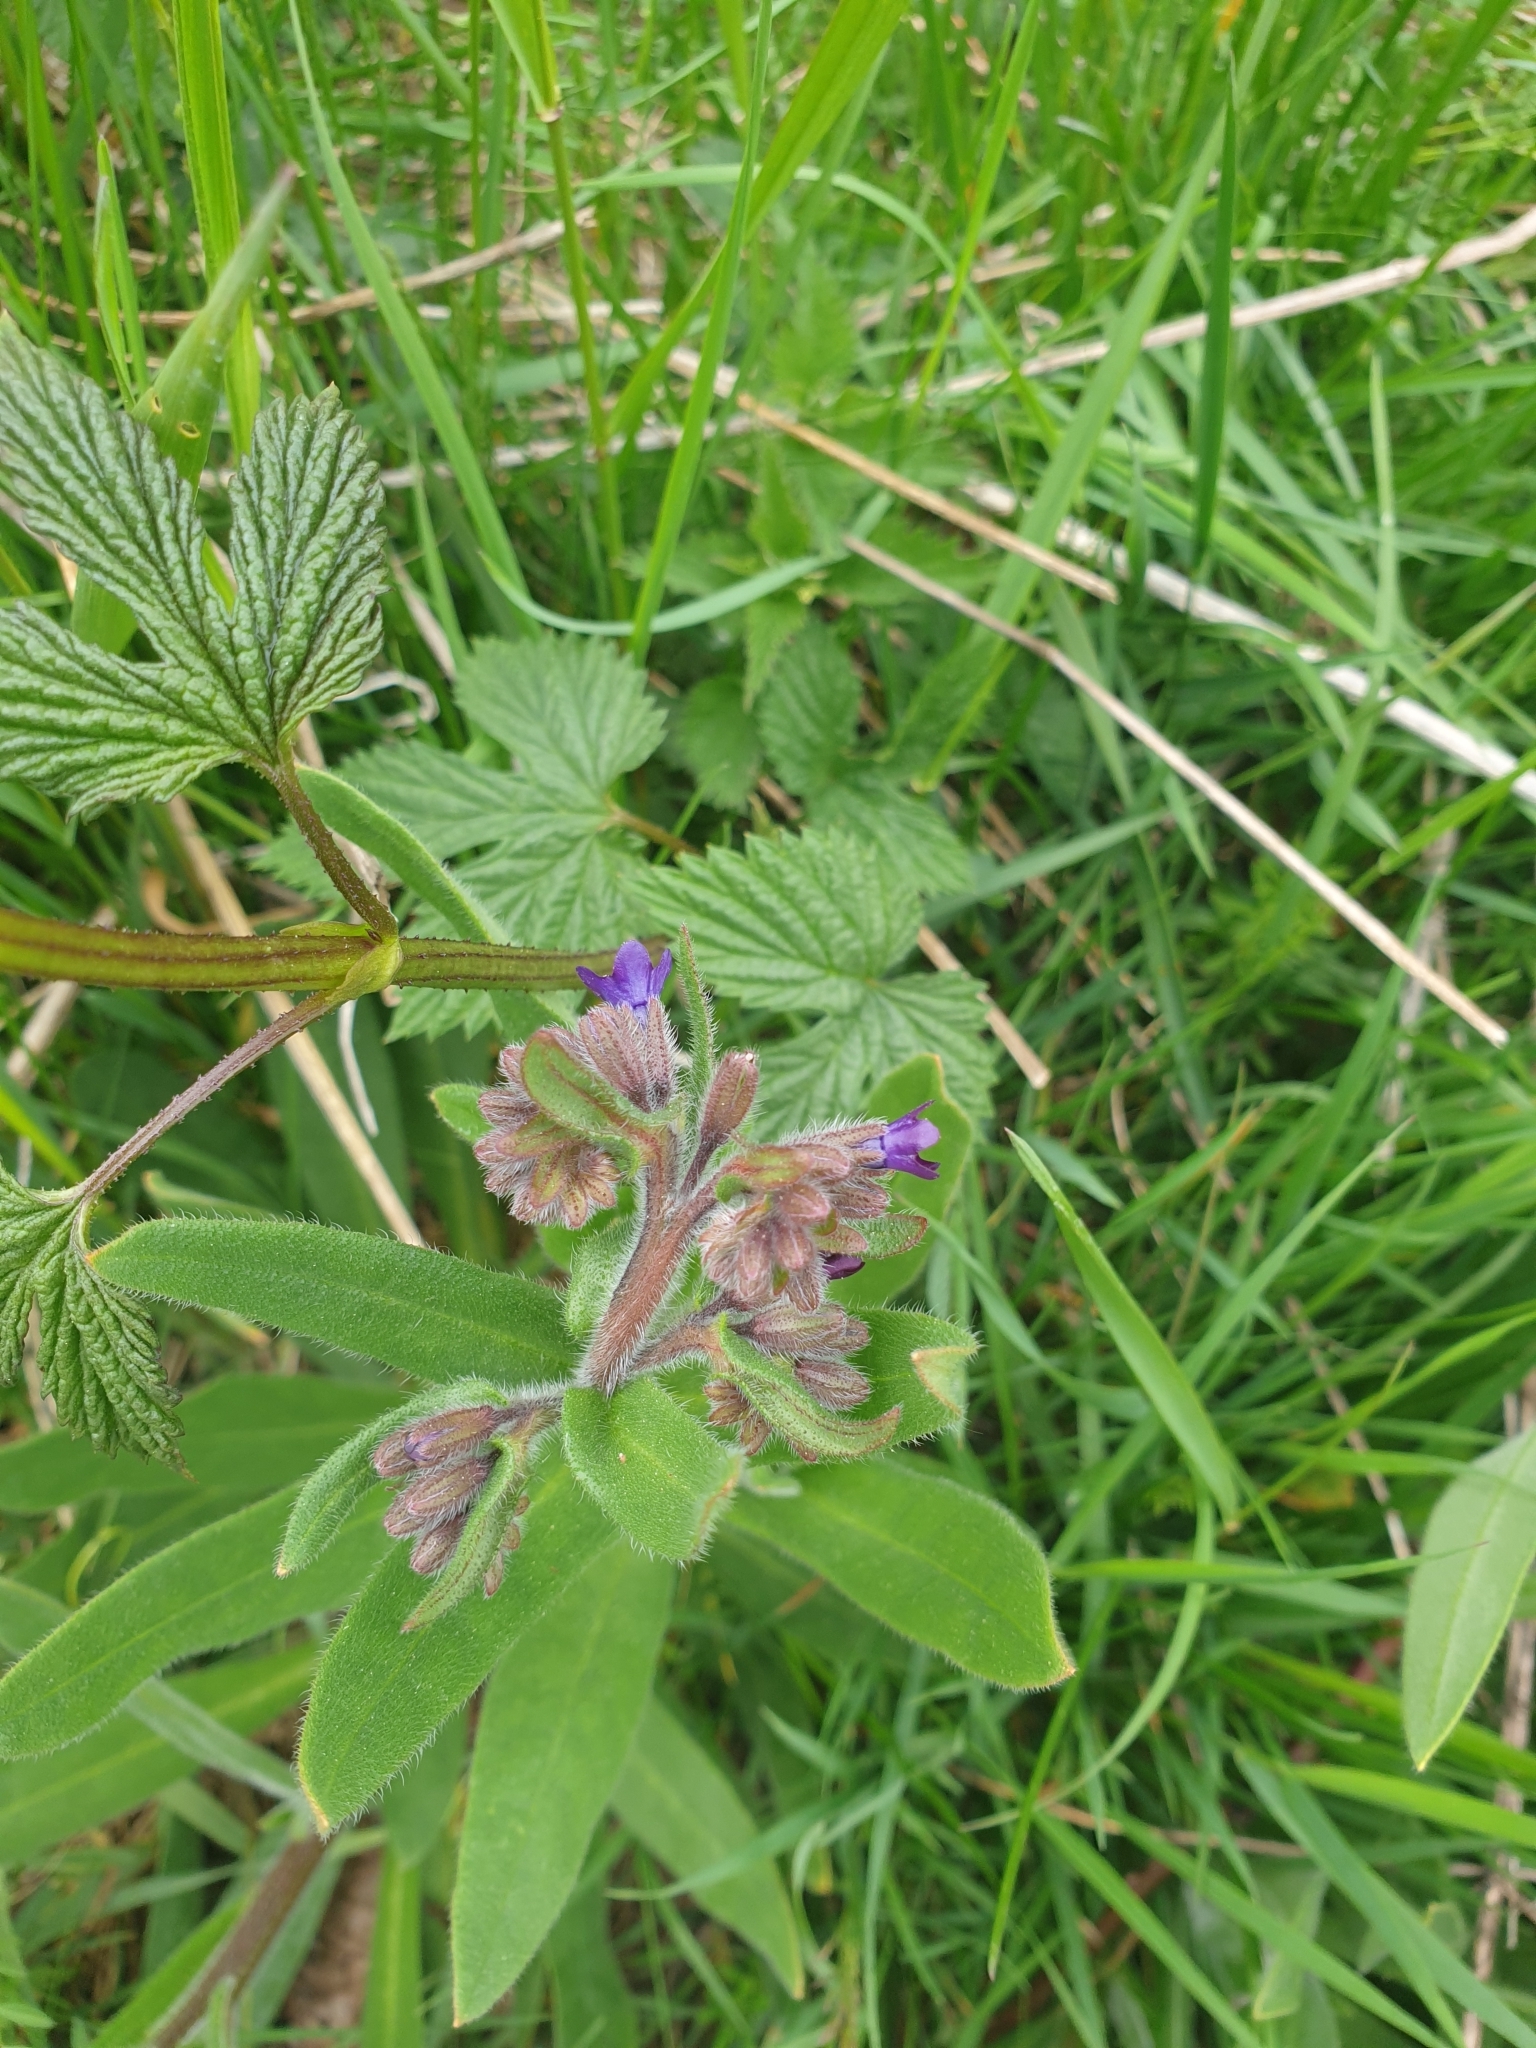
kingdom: Plantae
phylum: Tracheophyta
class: Magnoliopsida
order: Boraginales
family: Boraginaceae
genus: Anchusa
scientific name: Anchusa officinalis
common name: Alkanet
